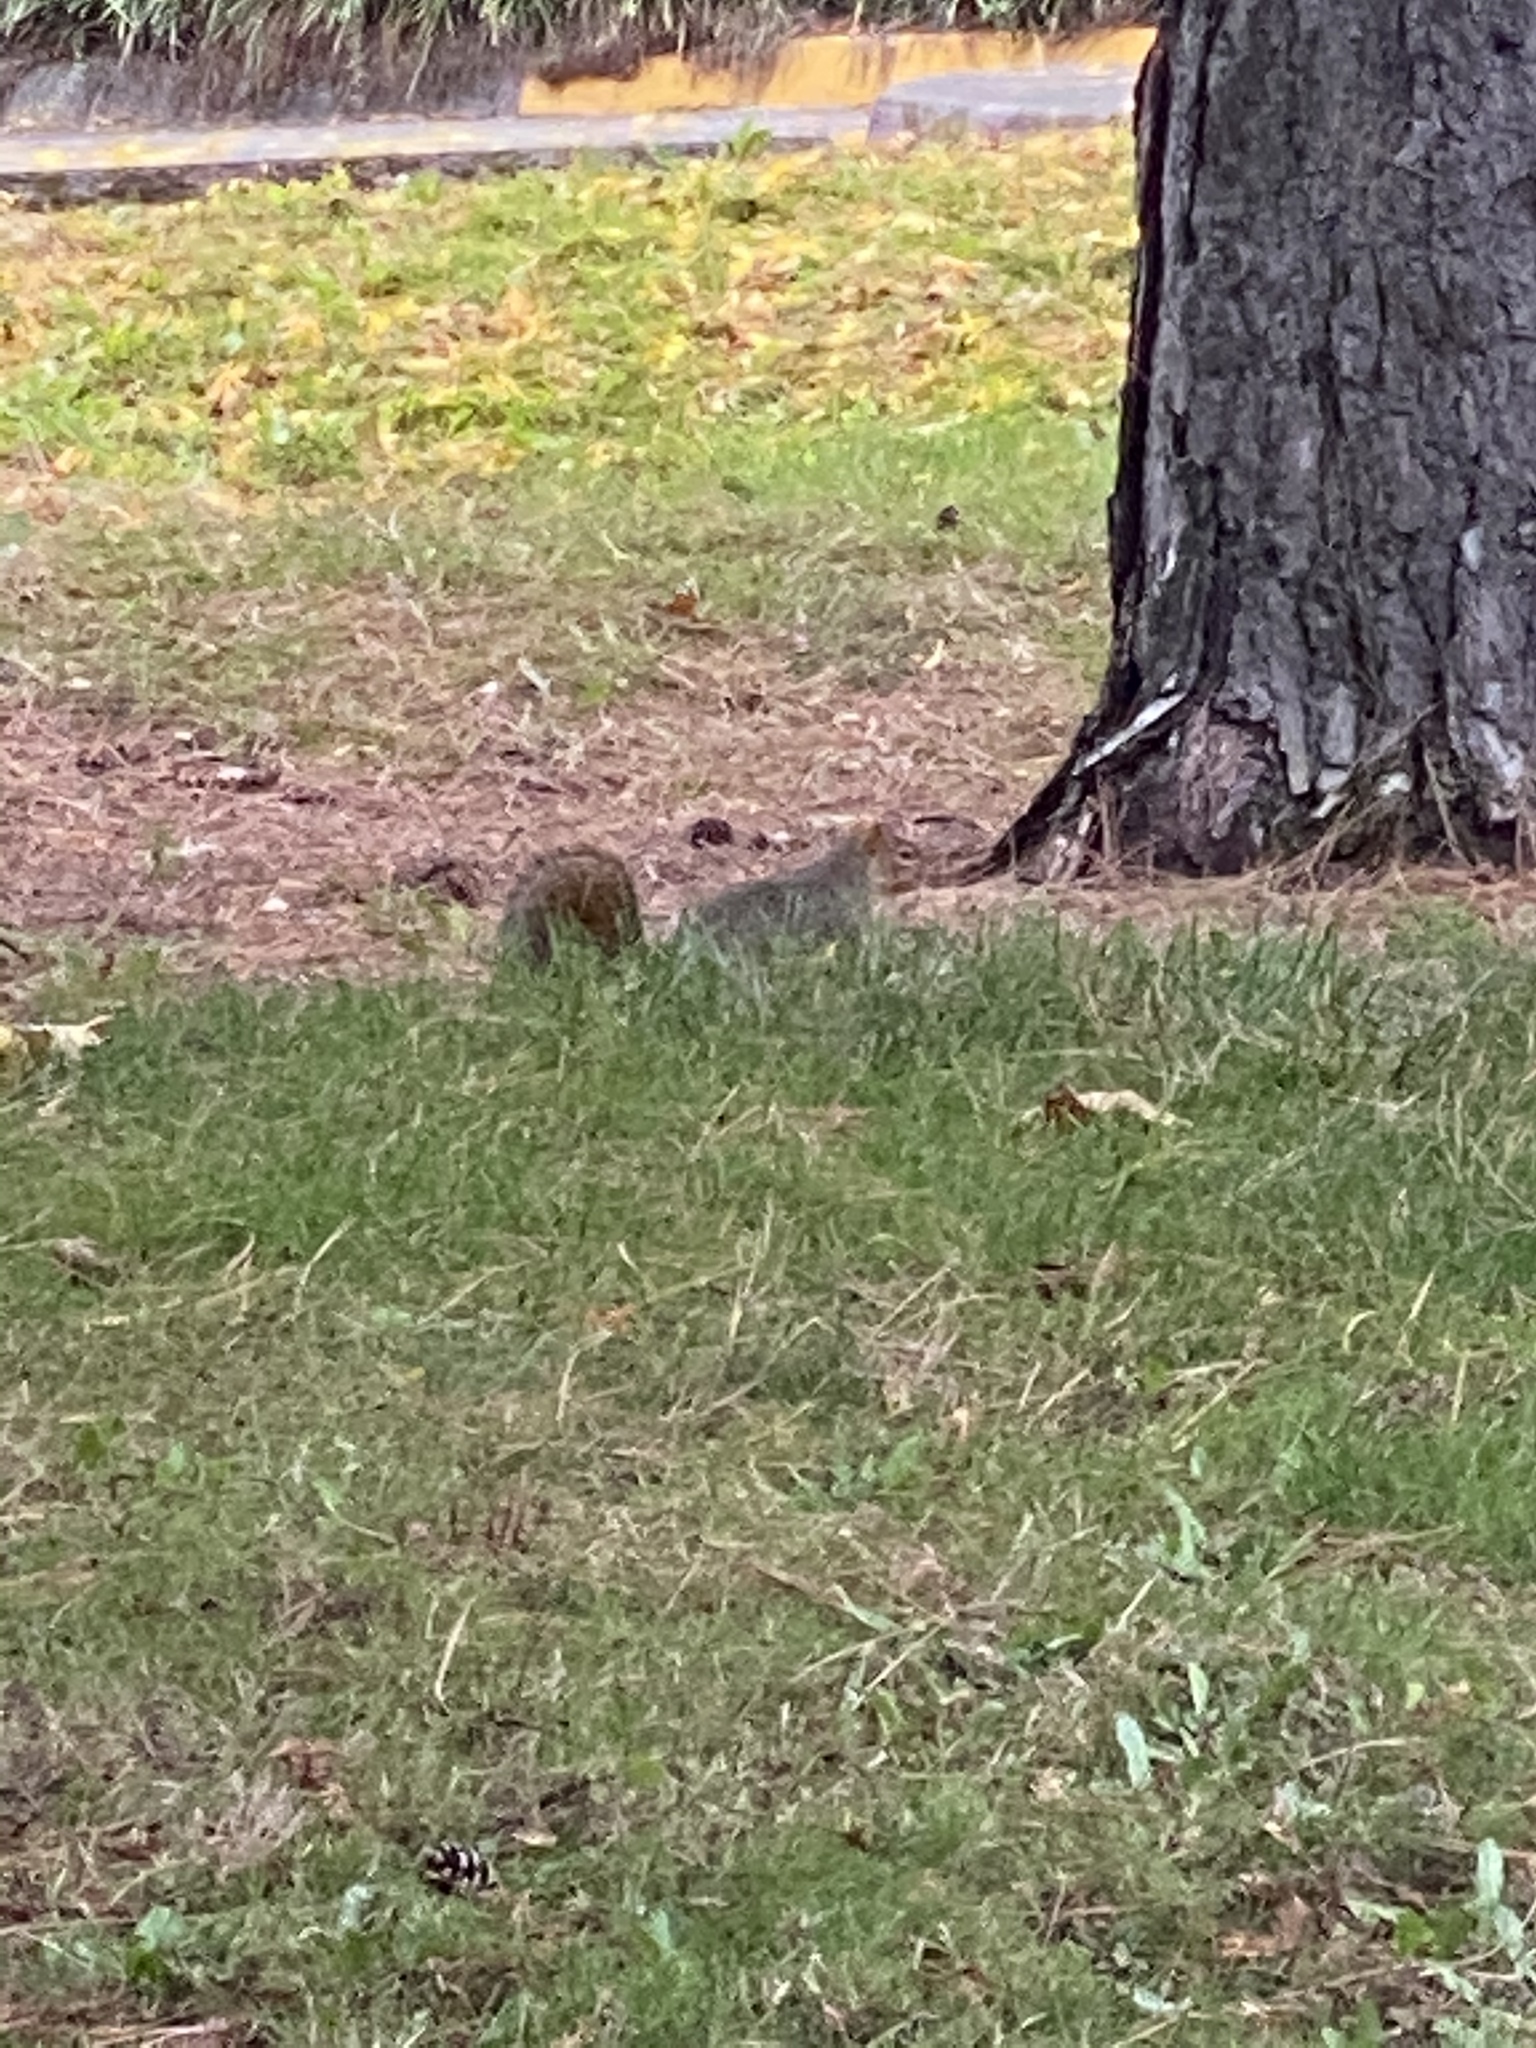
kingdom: Animalia
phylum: Chordata
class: Mammalia
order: Rodentia
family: Sciuridae
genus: Sciurus
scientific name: Sciurus carolinensis
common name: Eastern gray squirrel
